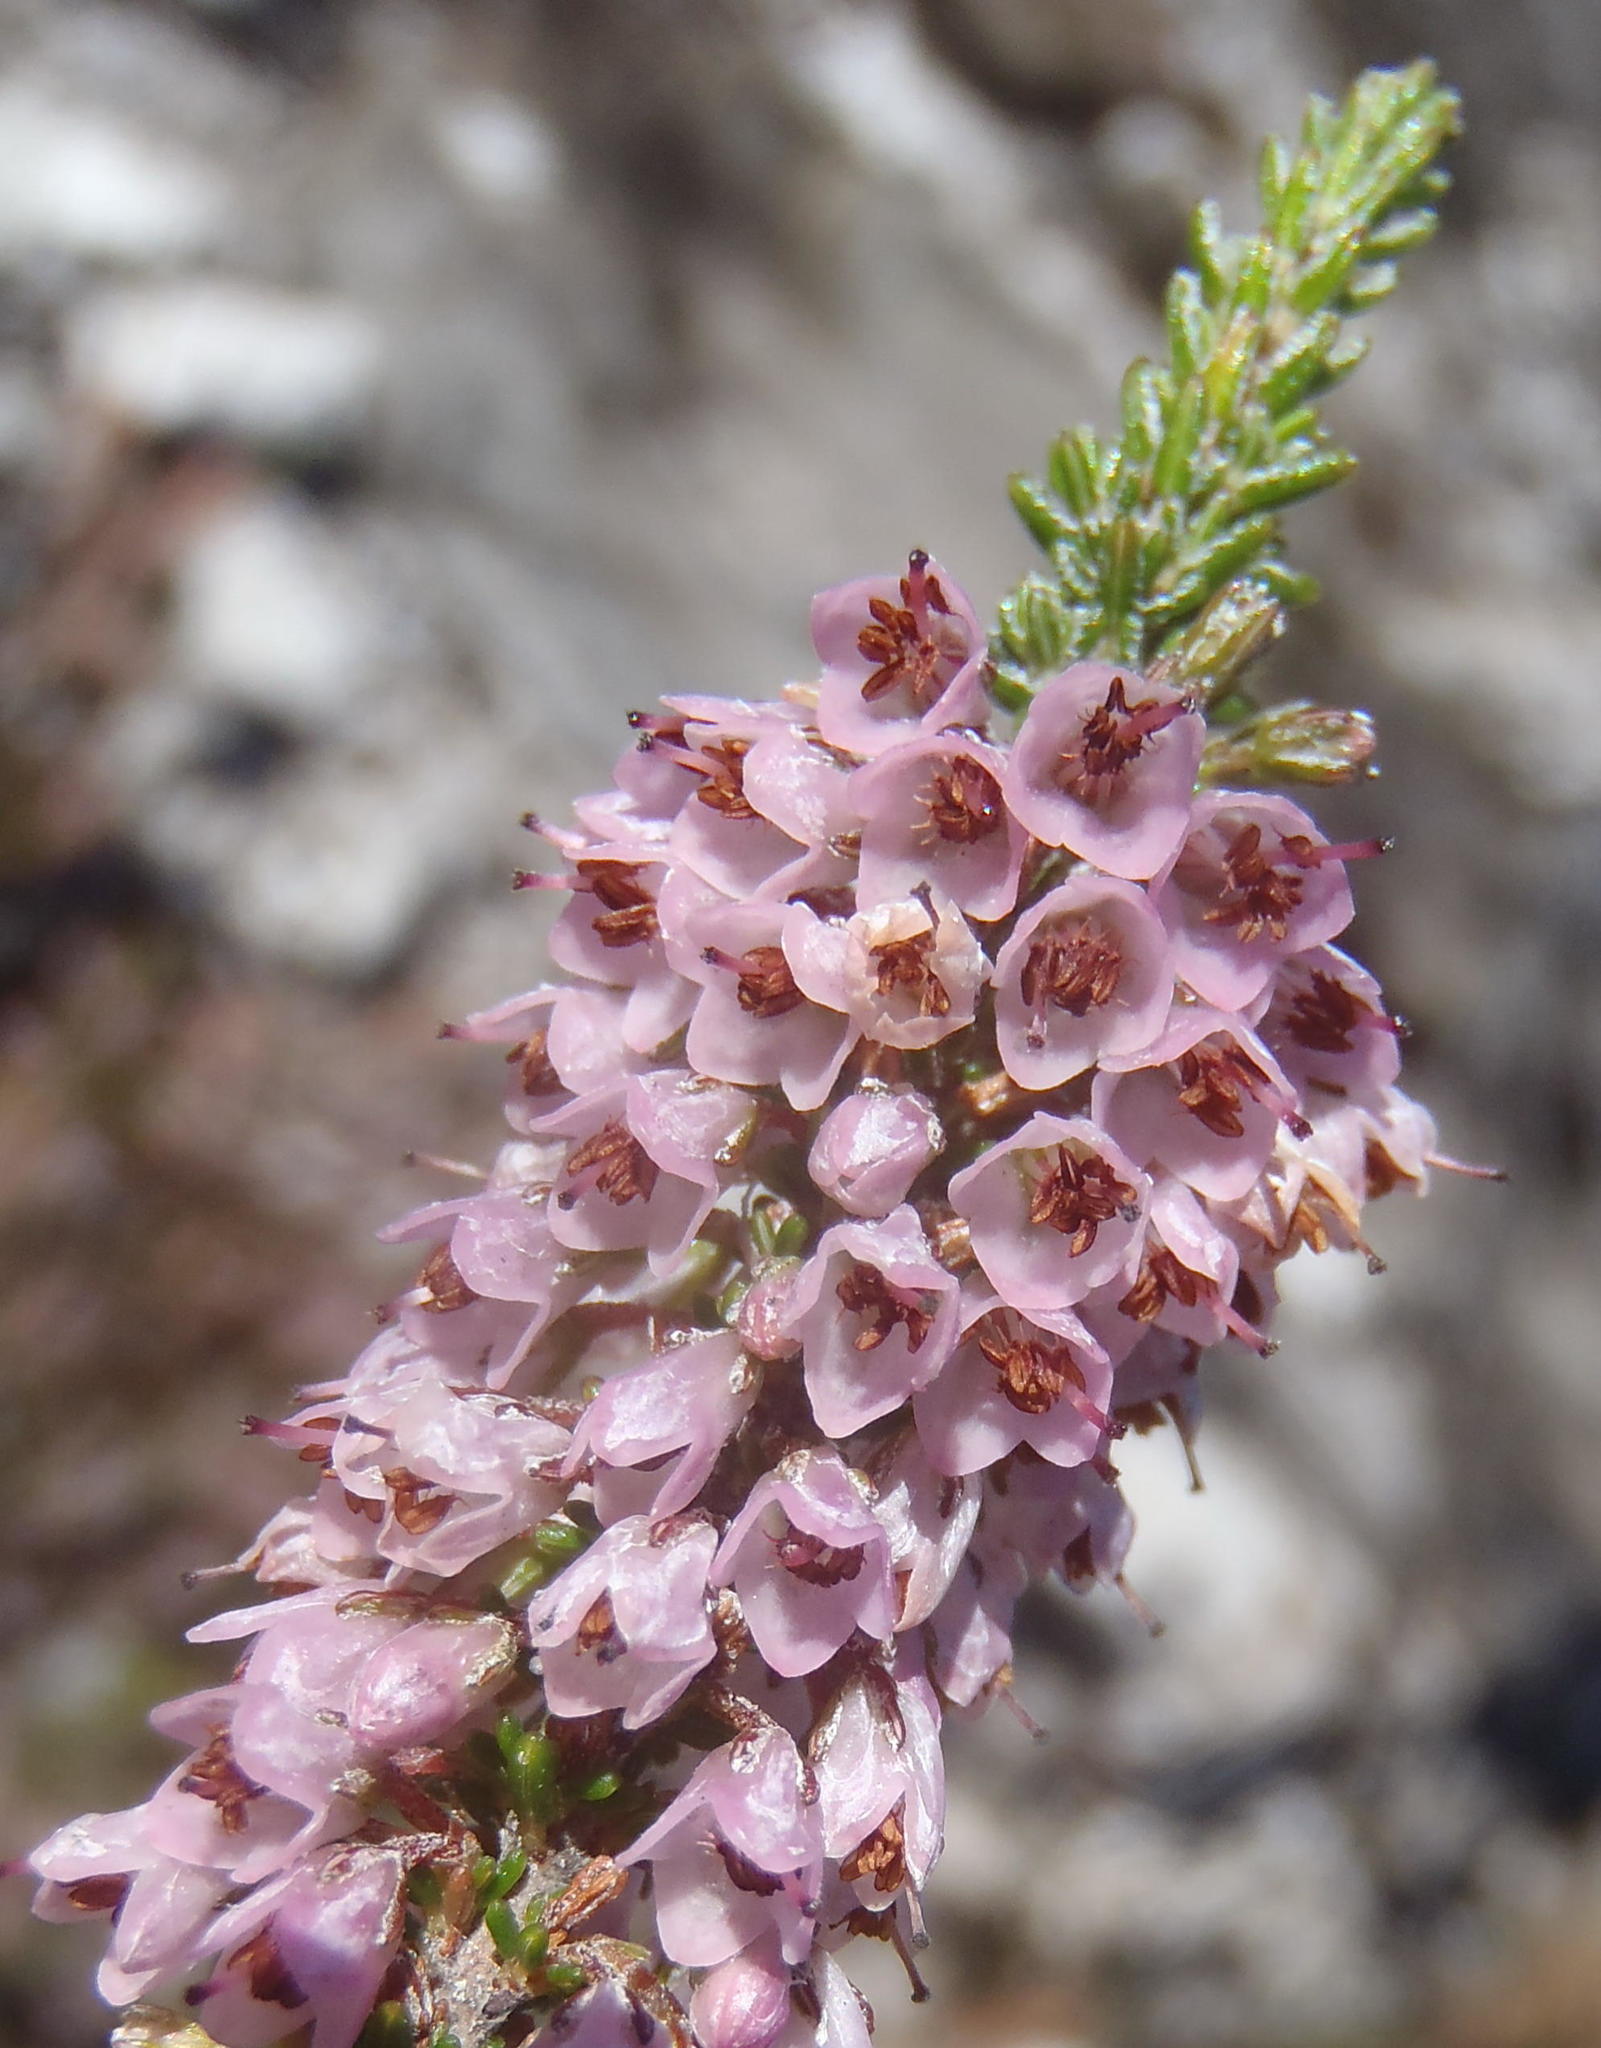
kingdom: Plantae
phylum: Tracheophyta
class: Magnoliopsida
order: Ericales
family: Ericaceae
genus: Erica
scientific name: Erica deflexa
